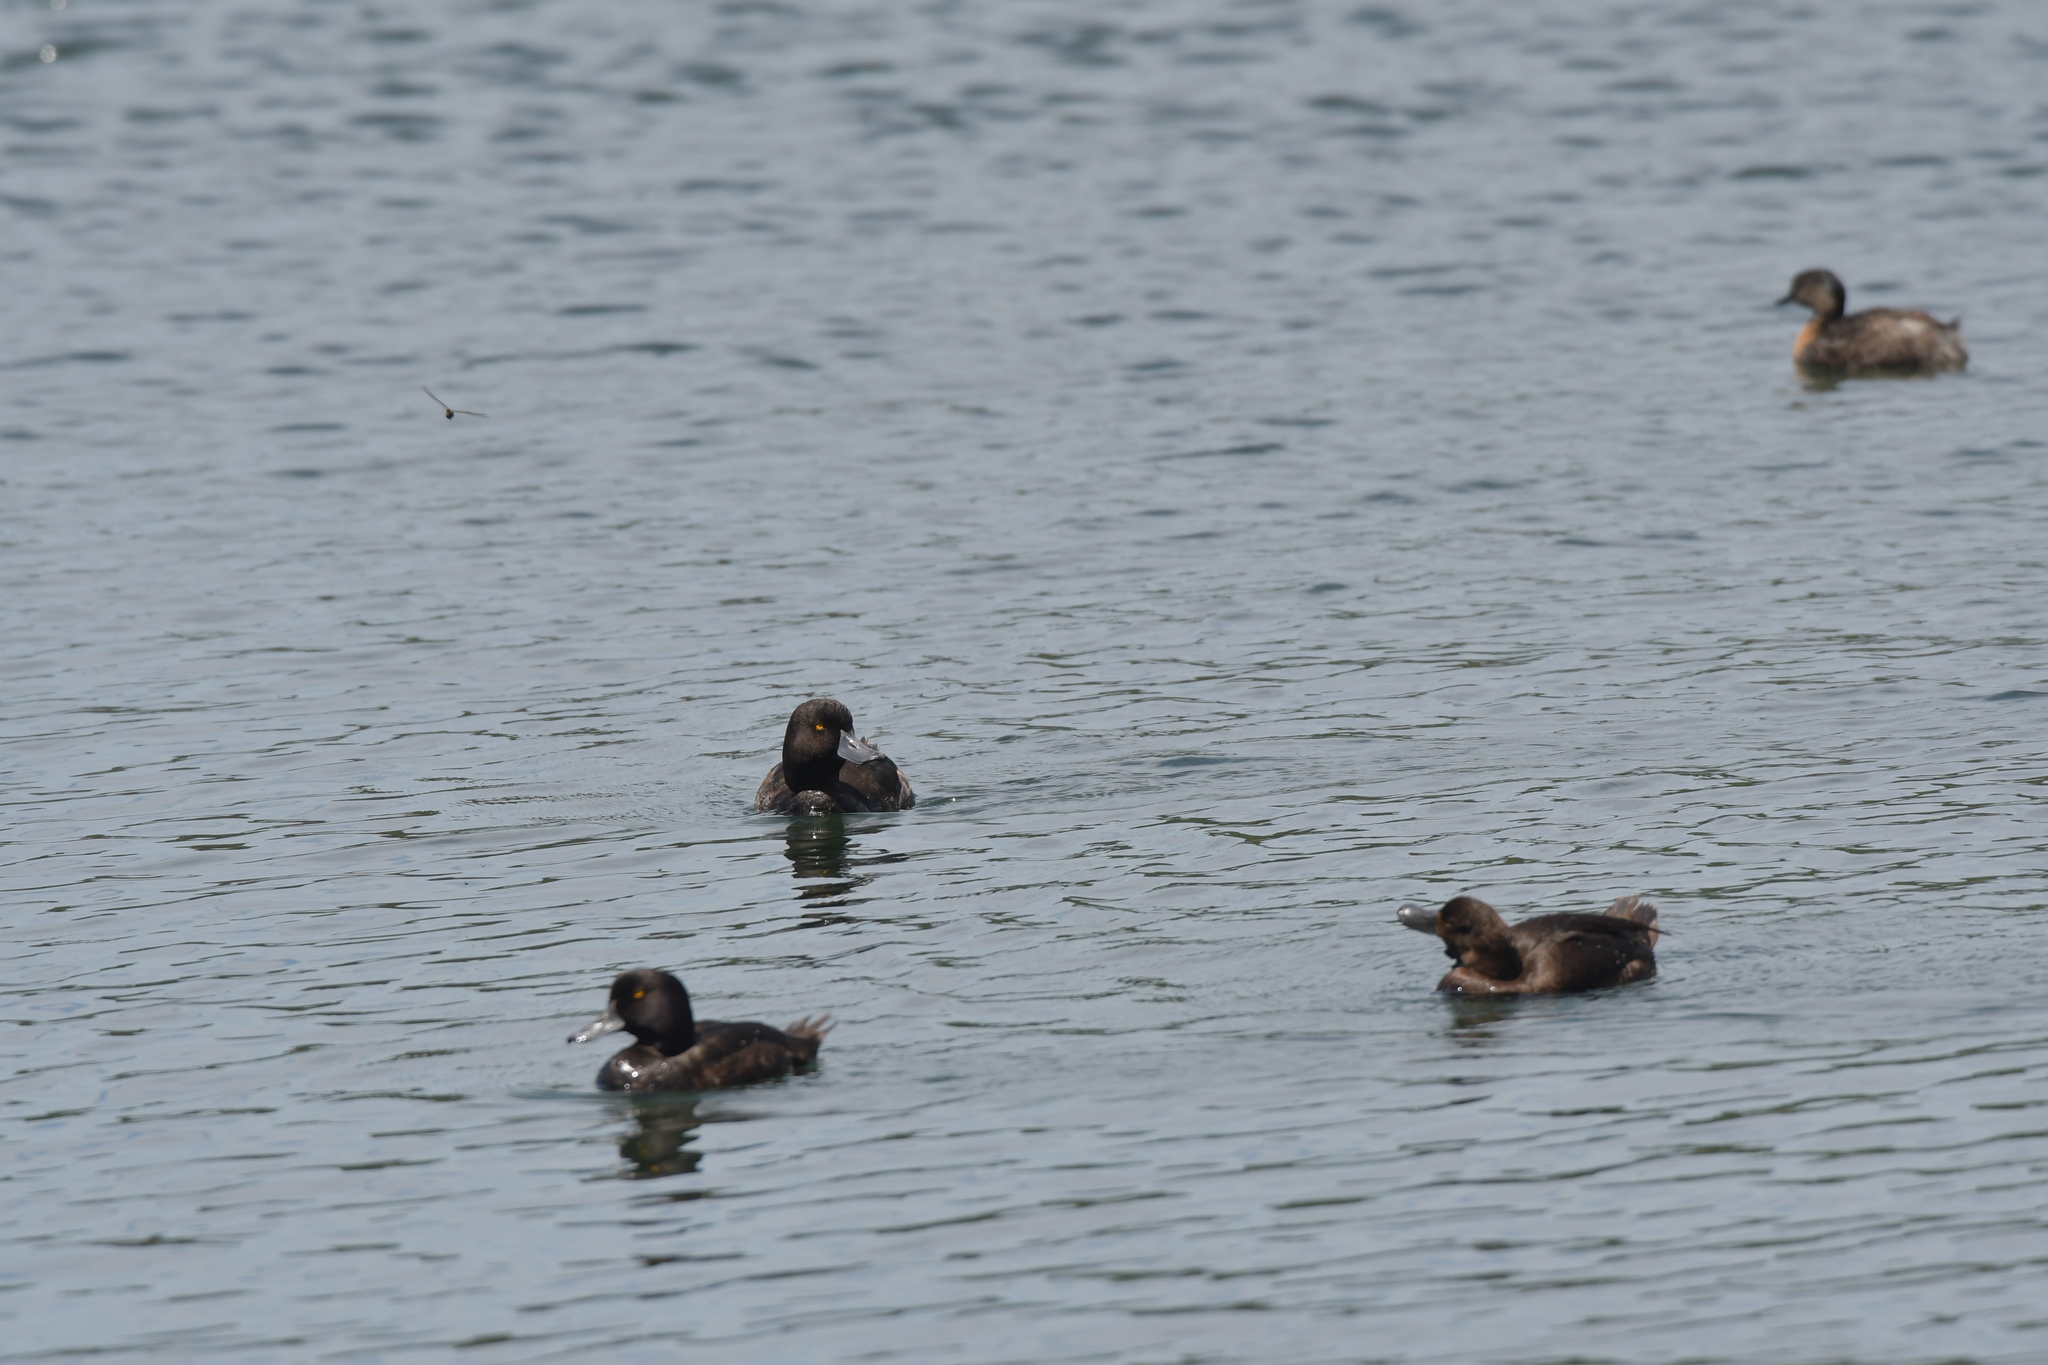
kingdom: Animalia
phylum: Chordata
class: Aves
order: Anseriformes
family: Anatidae
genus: Aythya
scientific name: Aythya novaeseelandiae
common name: New zealand scaup
